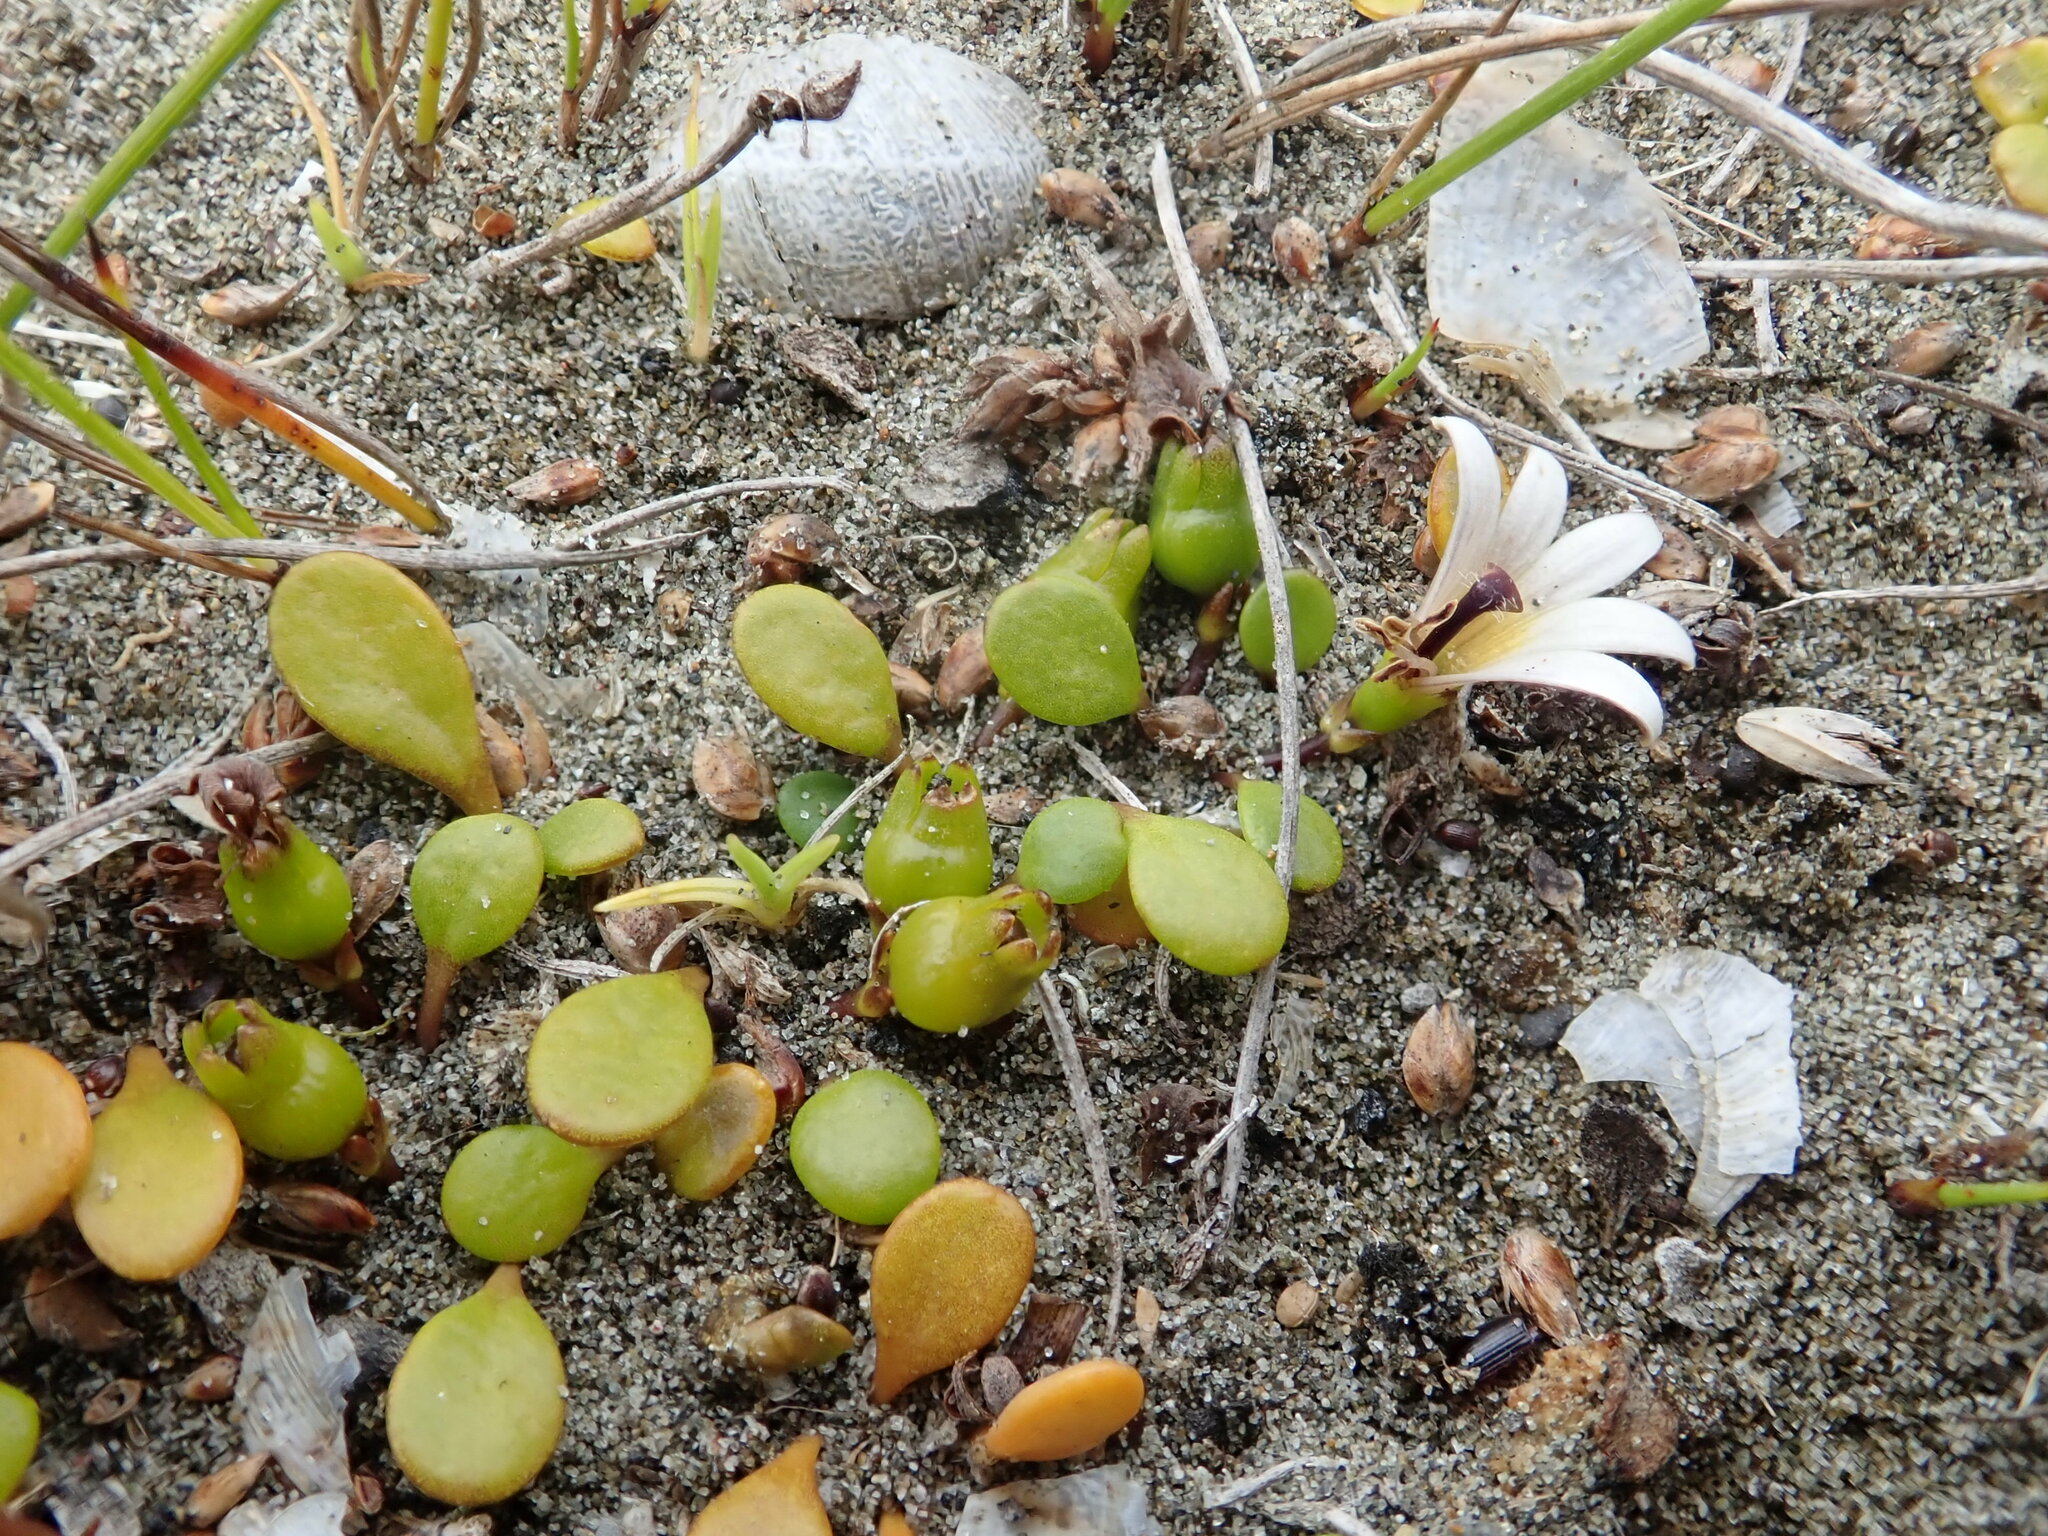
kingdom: Plantae
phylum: Tracheophyta
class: Magnoliopsida
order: Asterales
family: Goodeniaceae
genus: Goodenia
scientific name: Goodenia heenanii
